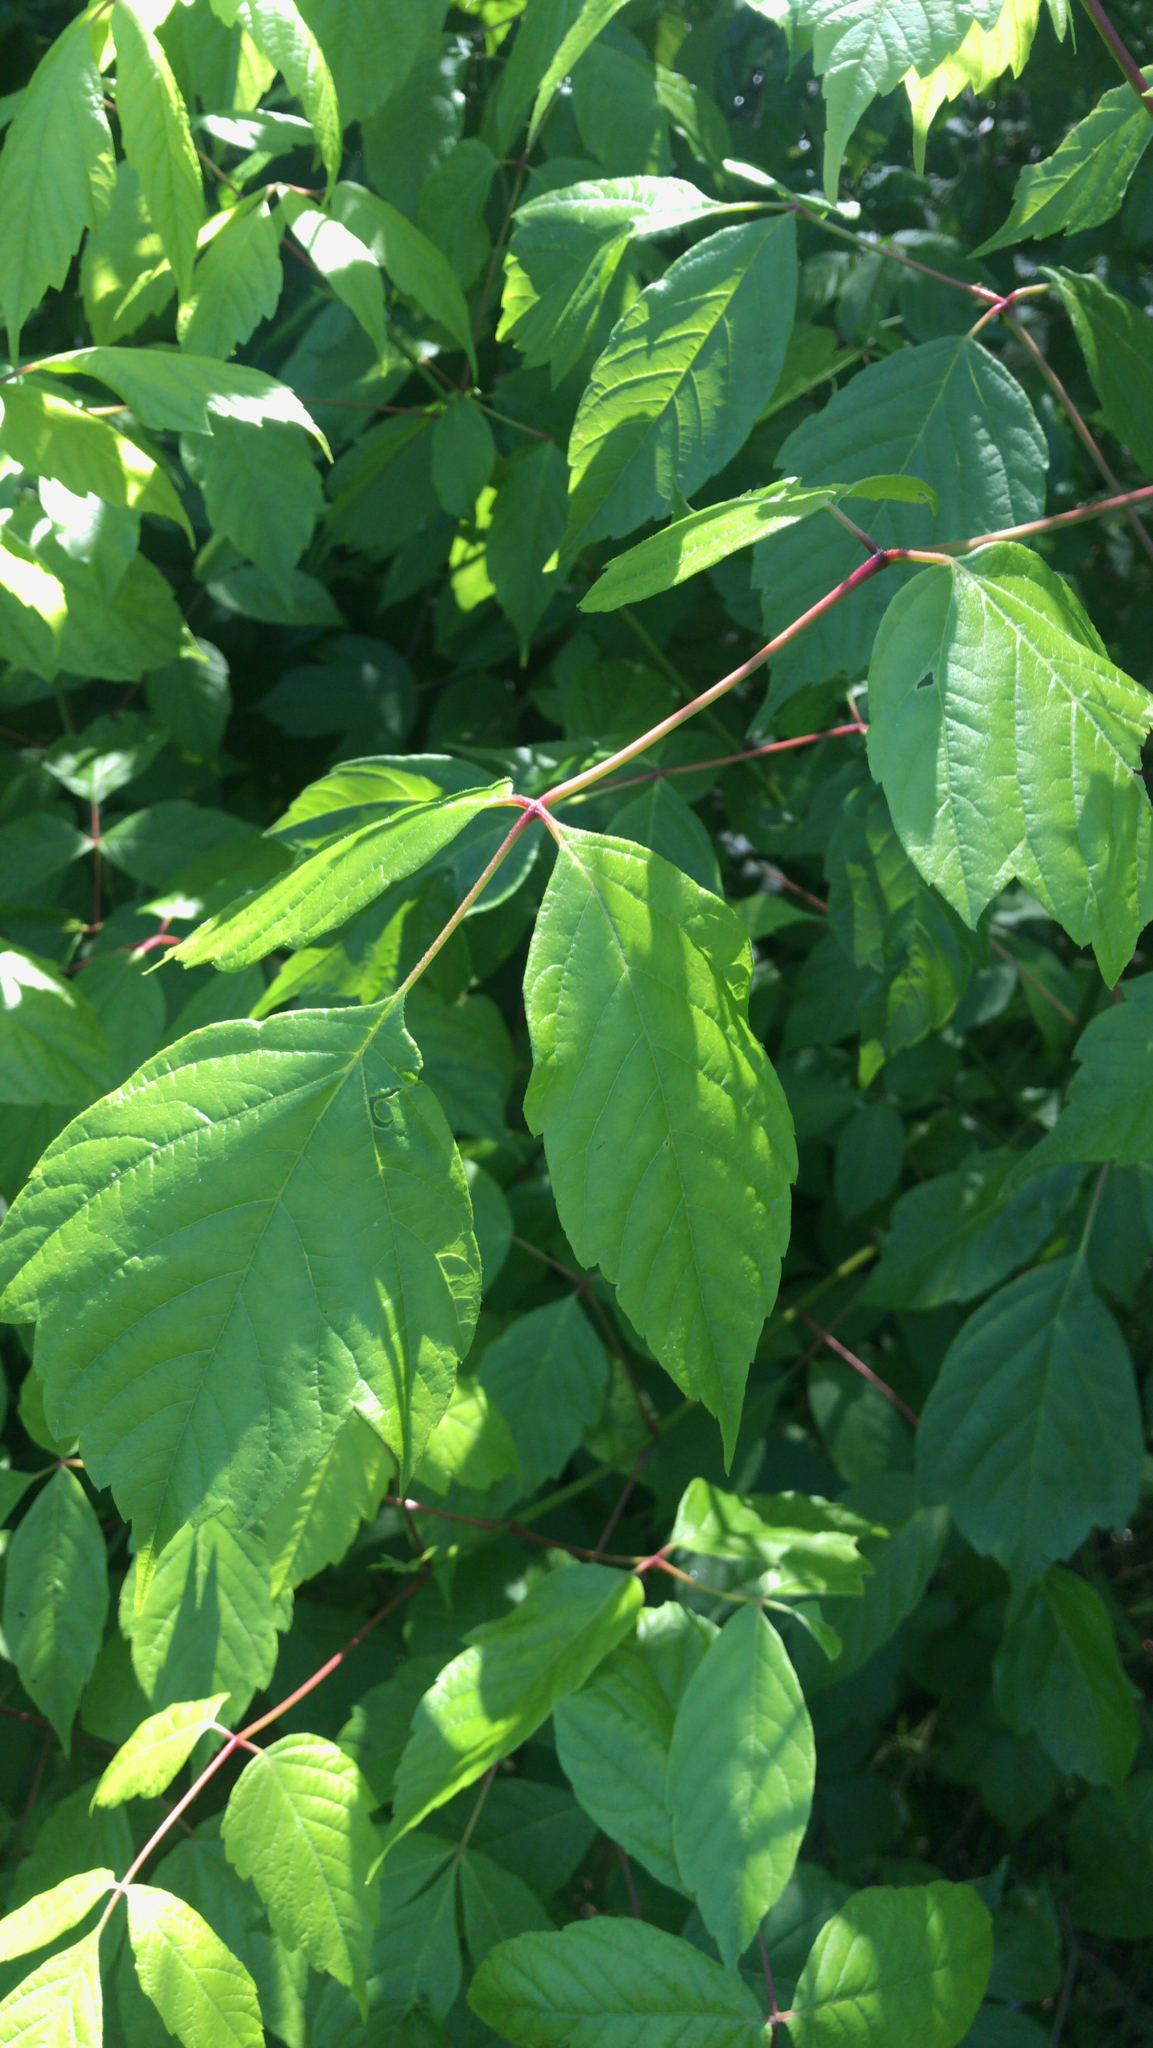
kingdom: Plantae
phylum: Tracheophyta
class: Magnoliopsida
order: Sapindales
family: Sapindaceae
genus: Acer
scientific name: Acer negundo
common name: Ashleaf maple
